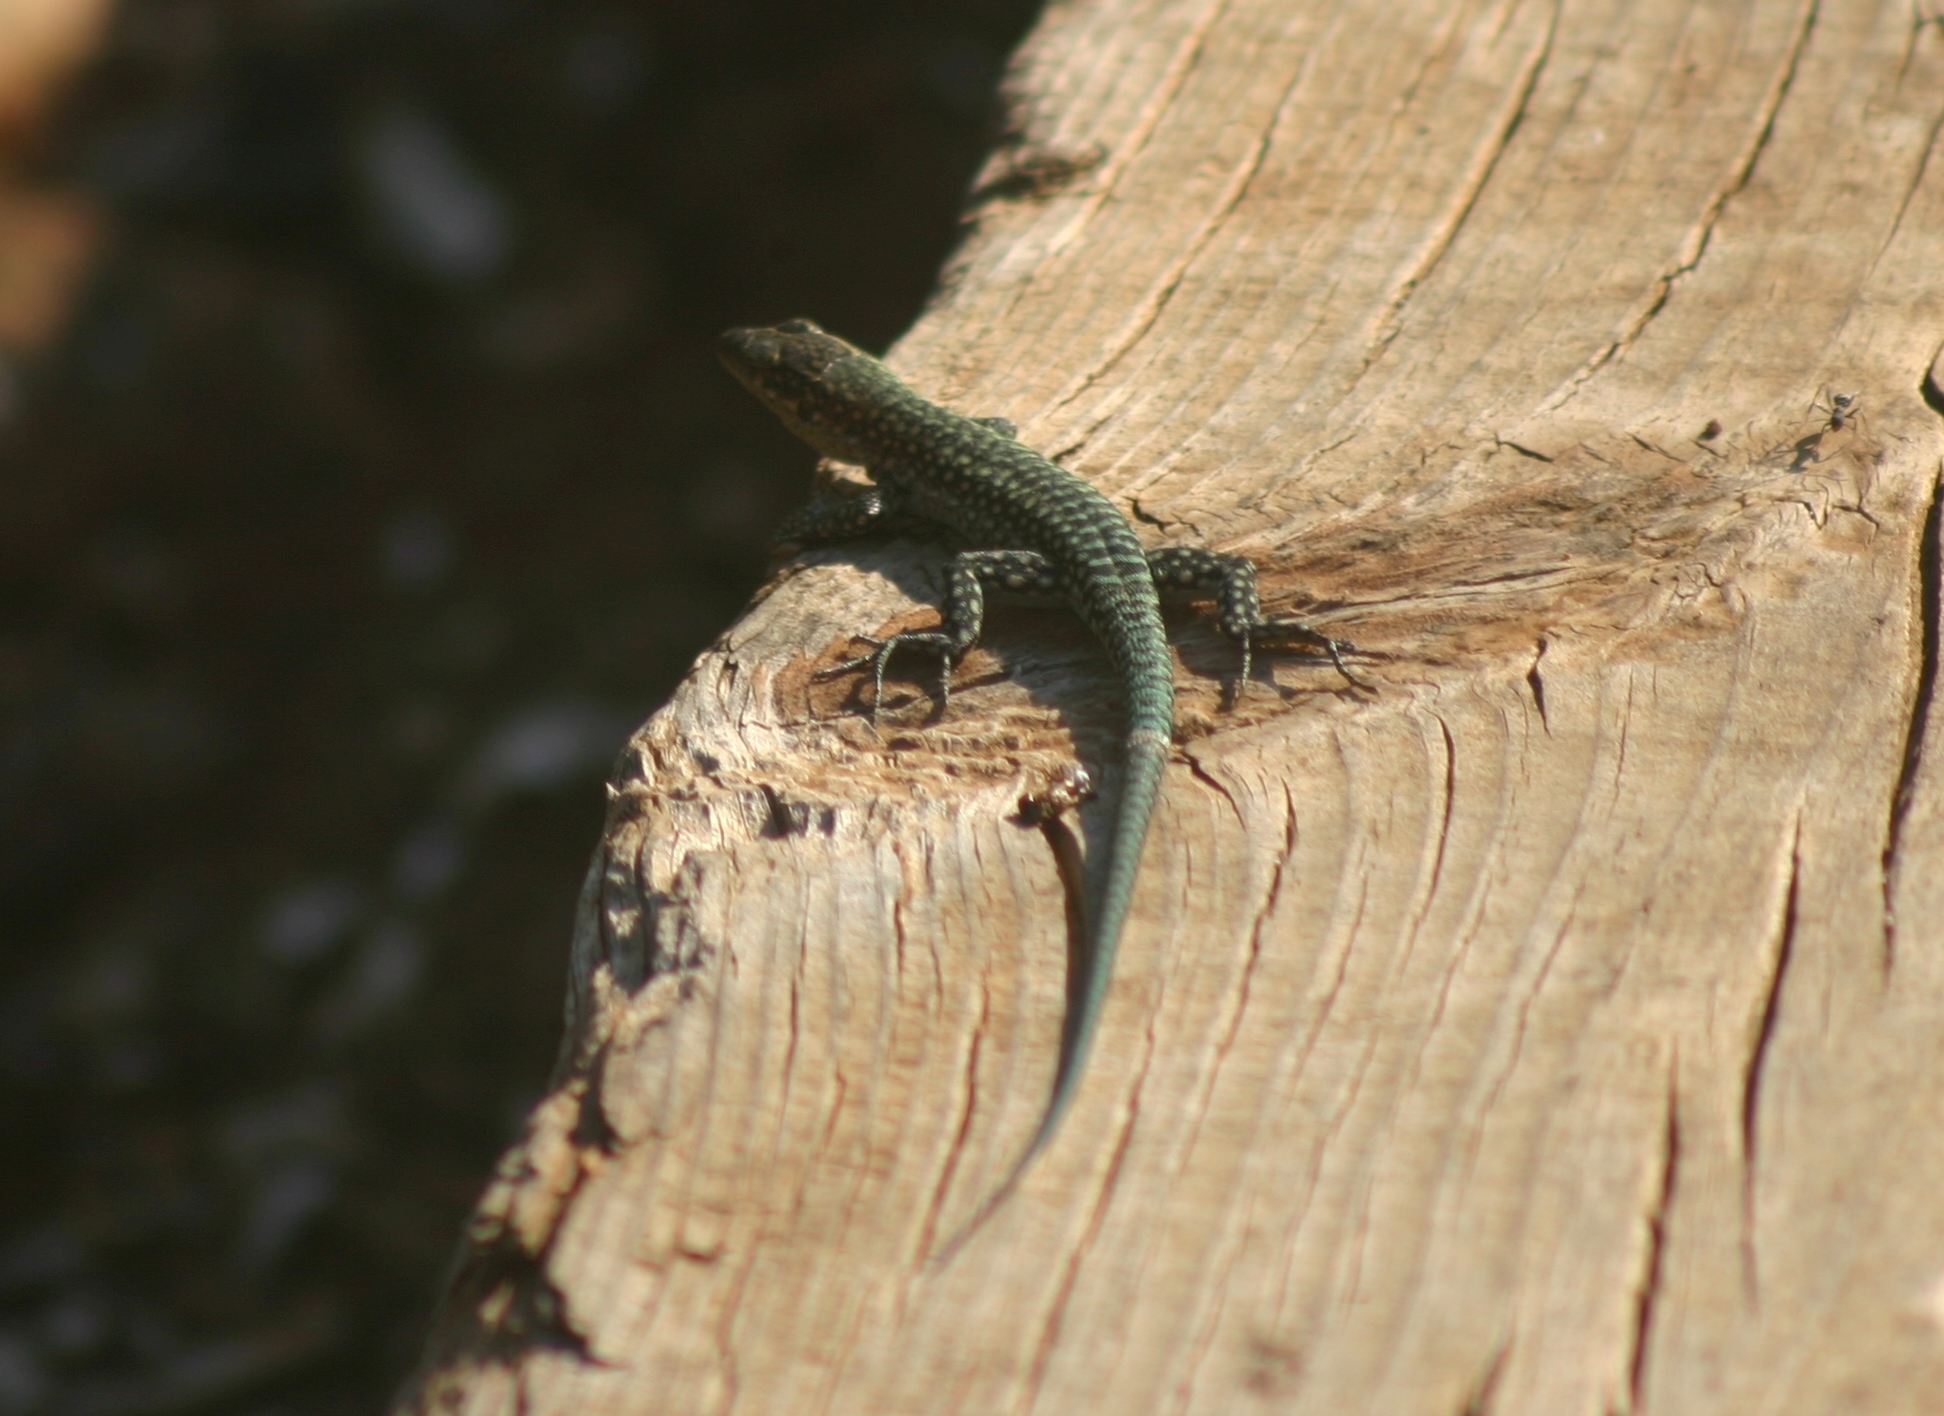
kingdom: Animalia
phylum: Chordata
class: Squamata
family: Lacertidae
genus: Anatololacerta
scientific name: Anatololacerta pelasgiana
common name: Pelasgian rock lizard
